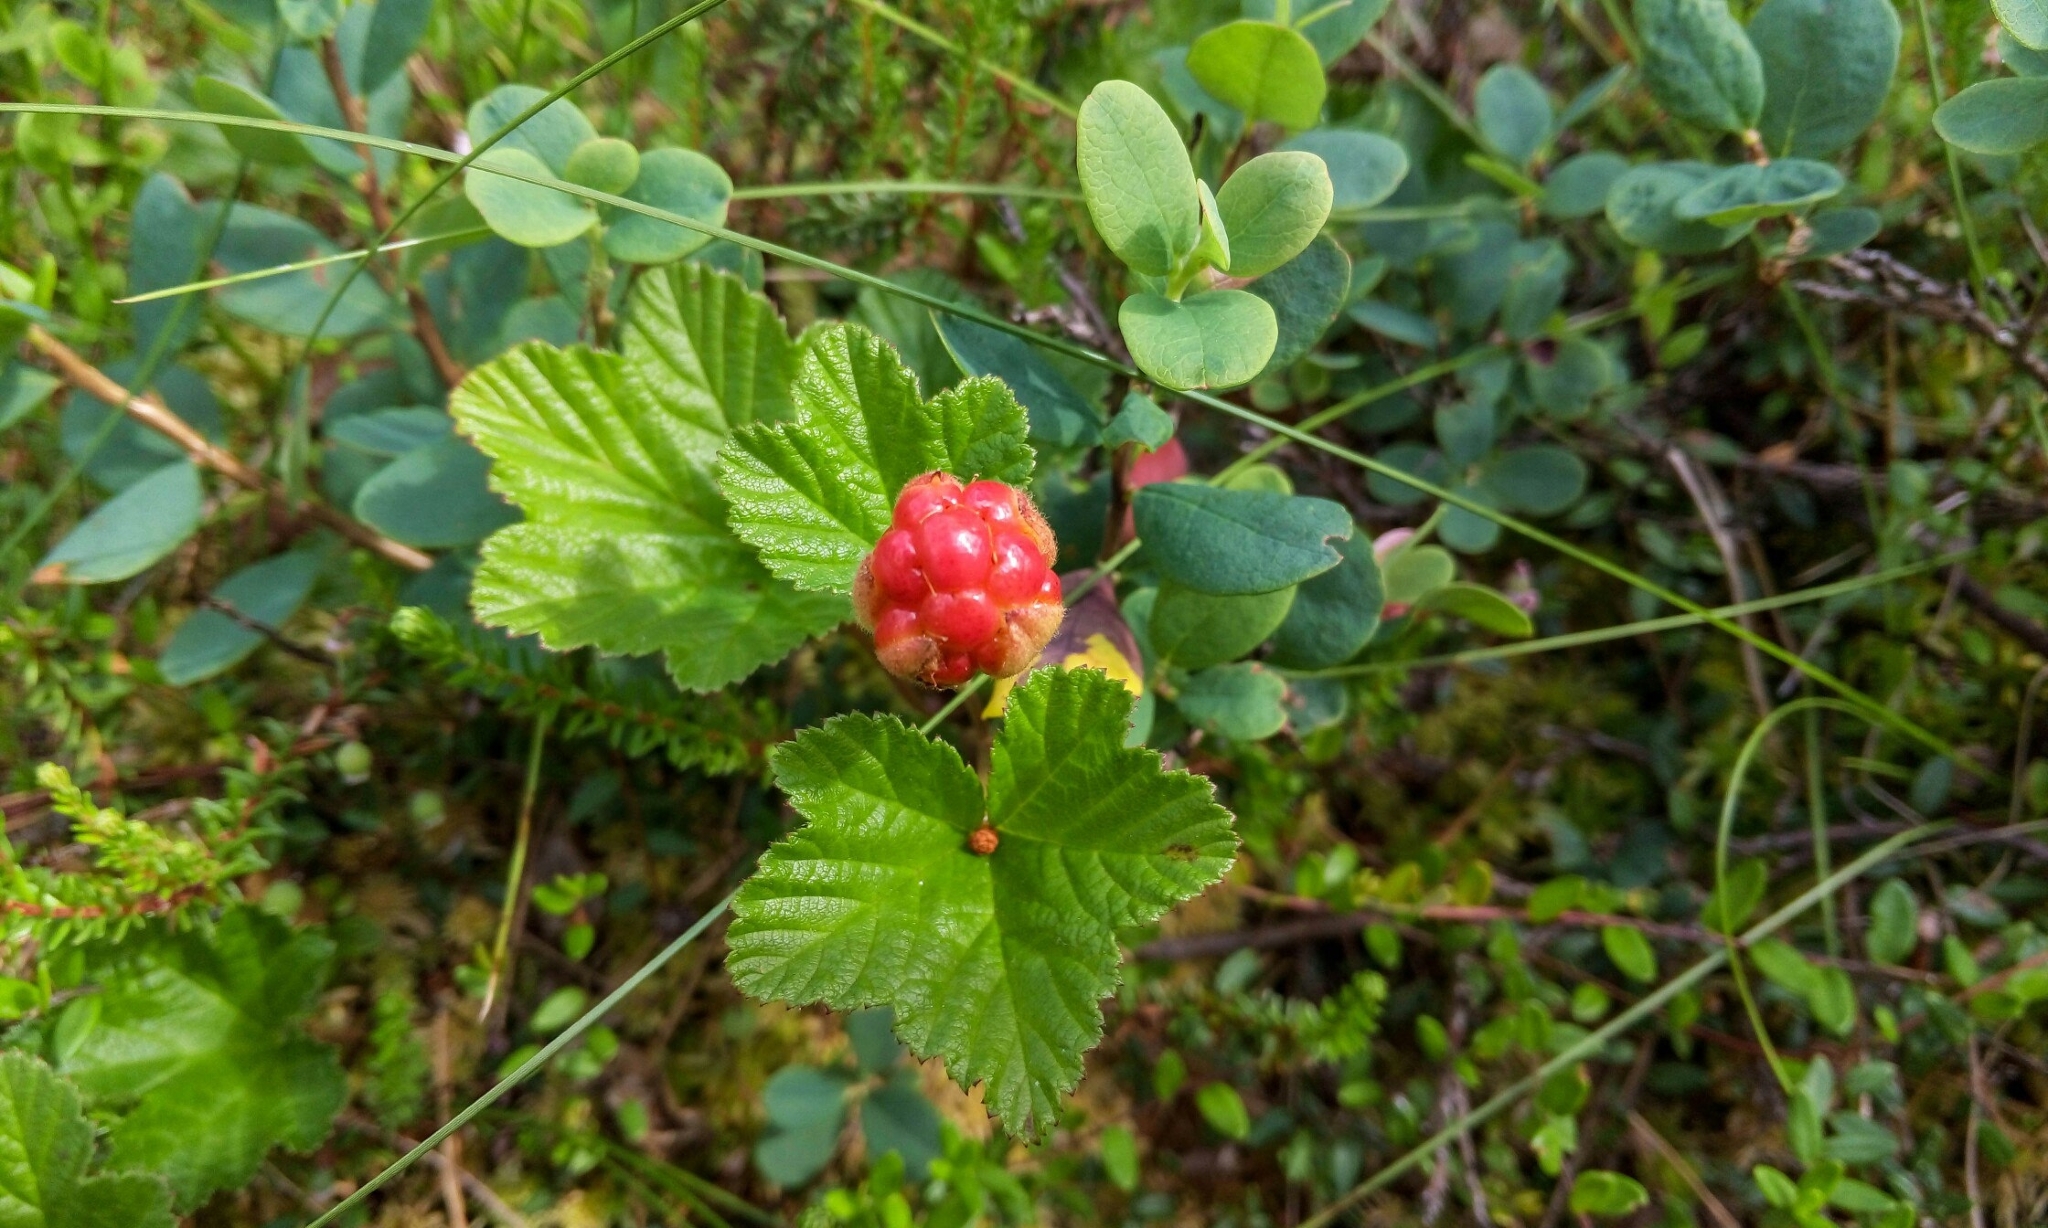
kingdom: Plantae
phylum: Tracheophyta
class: Magnoliopsida
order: Rosales
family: Rosaceae
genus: Rubus
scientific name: Rubus chamaemorus
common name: Cloudberry
